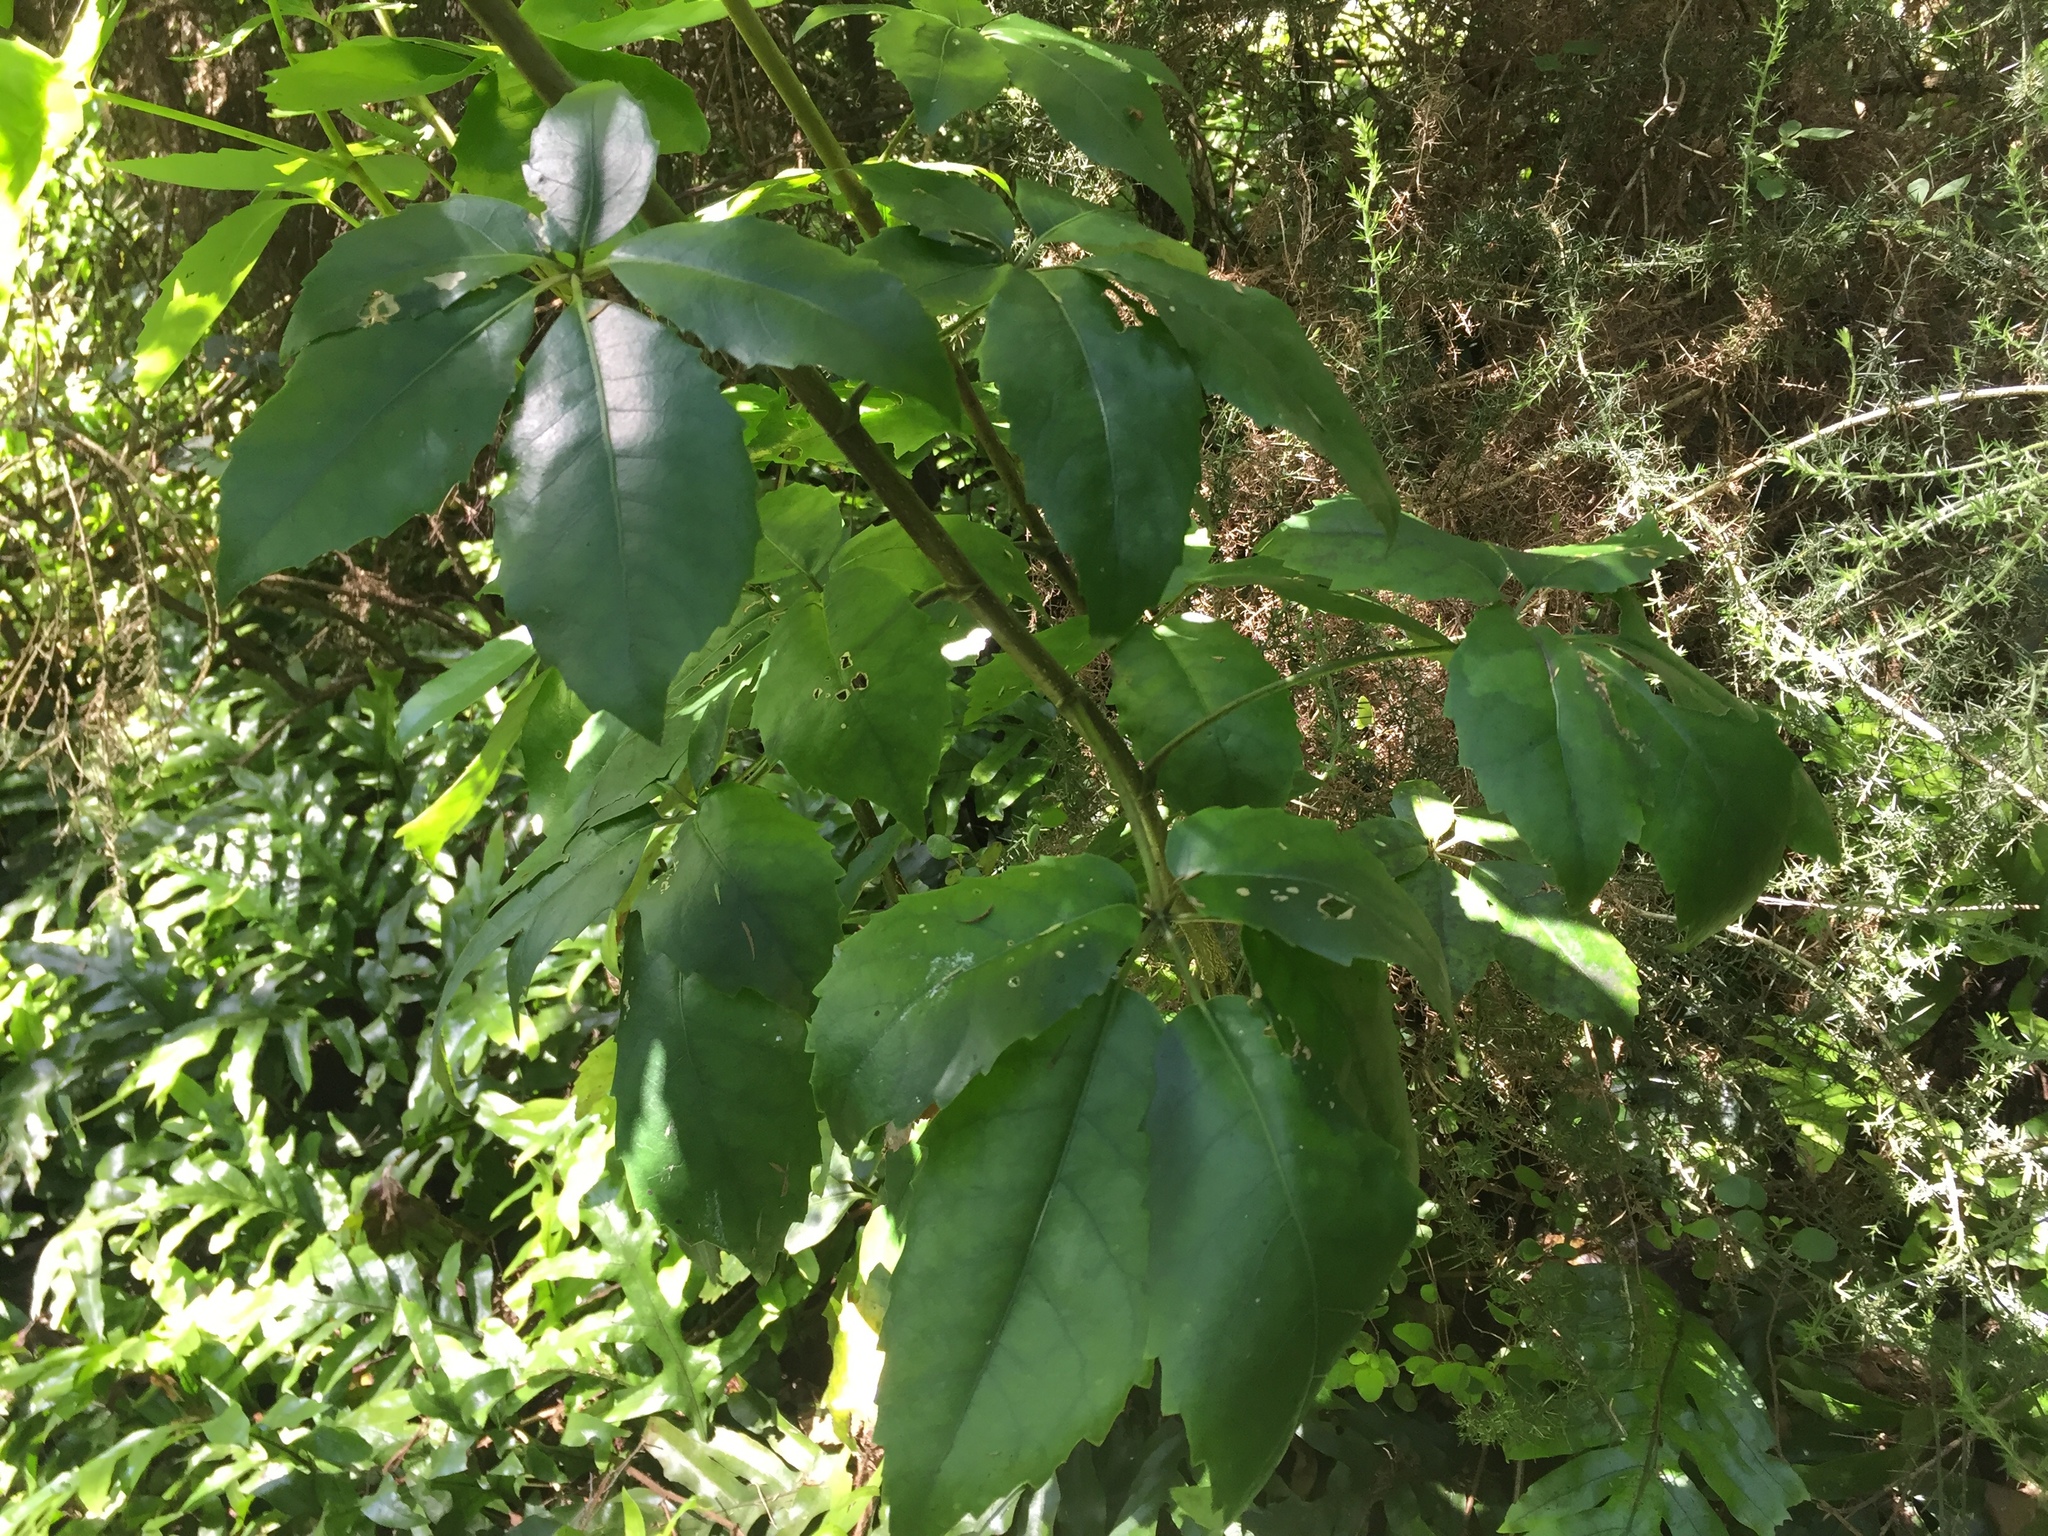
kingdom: Plantae
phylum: Tracheophyta
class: Magnoliopsida
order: Apiales
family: Araliaceae
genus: Neopanax
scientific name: Neopanax arboreus
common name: Five-fingers
